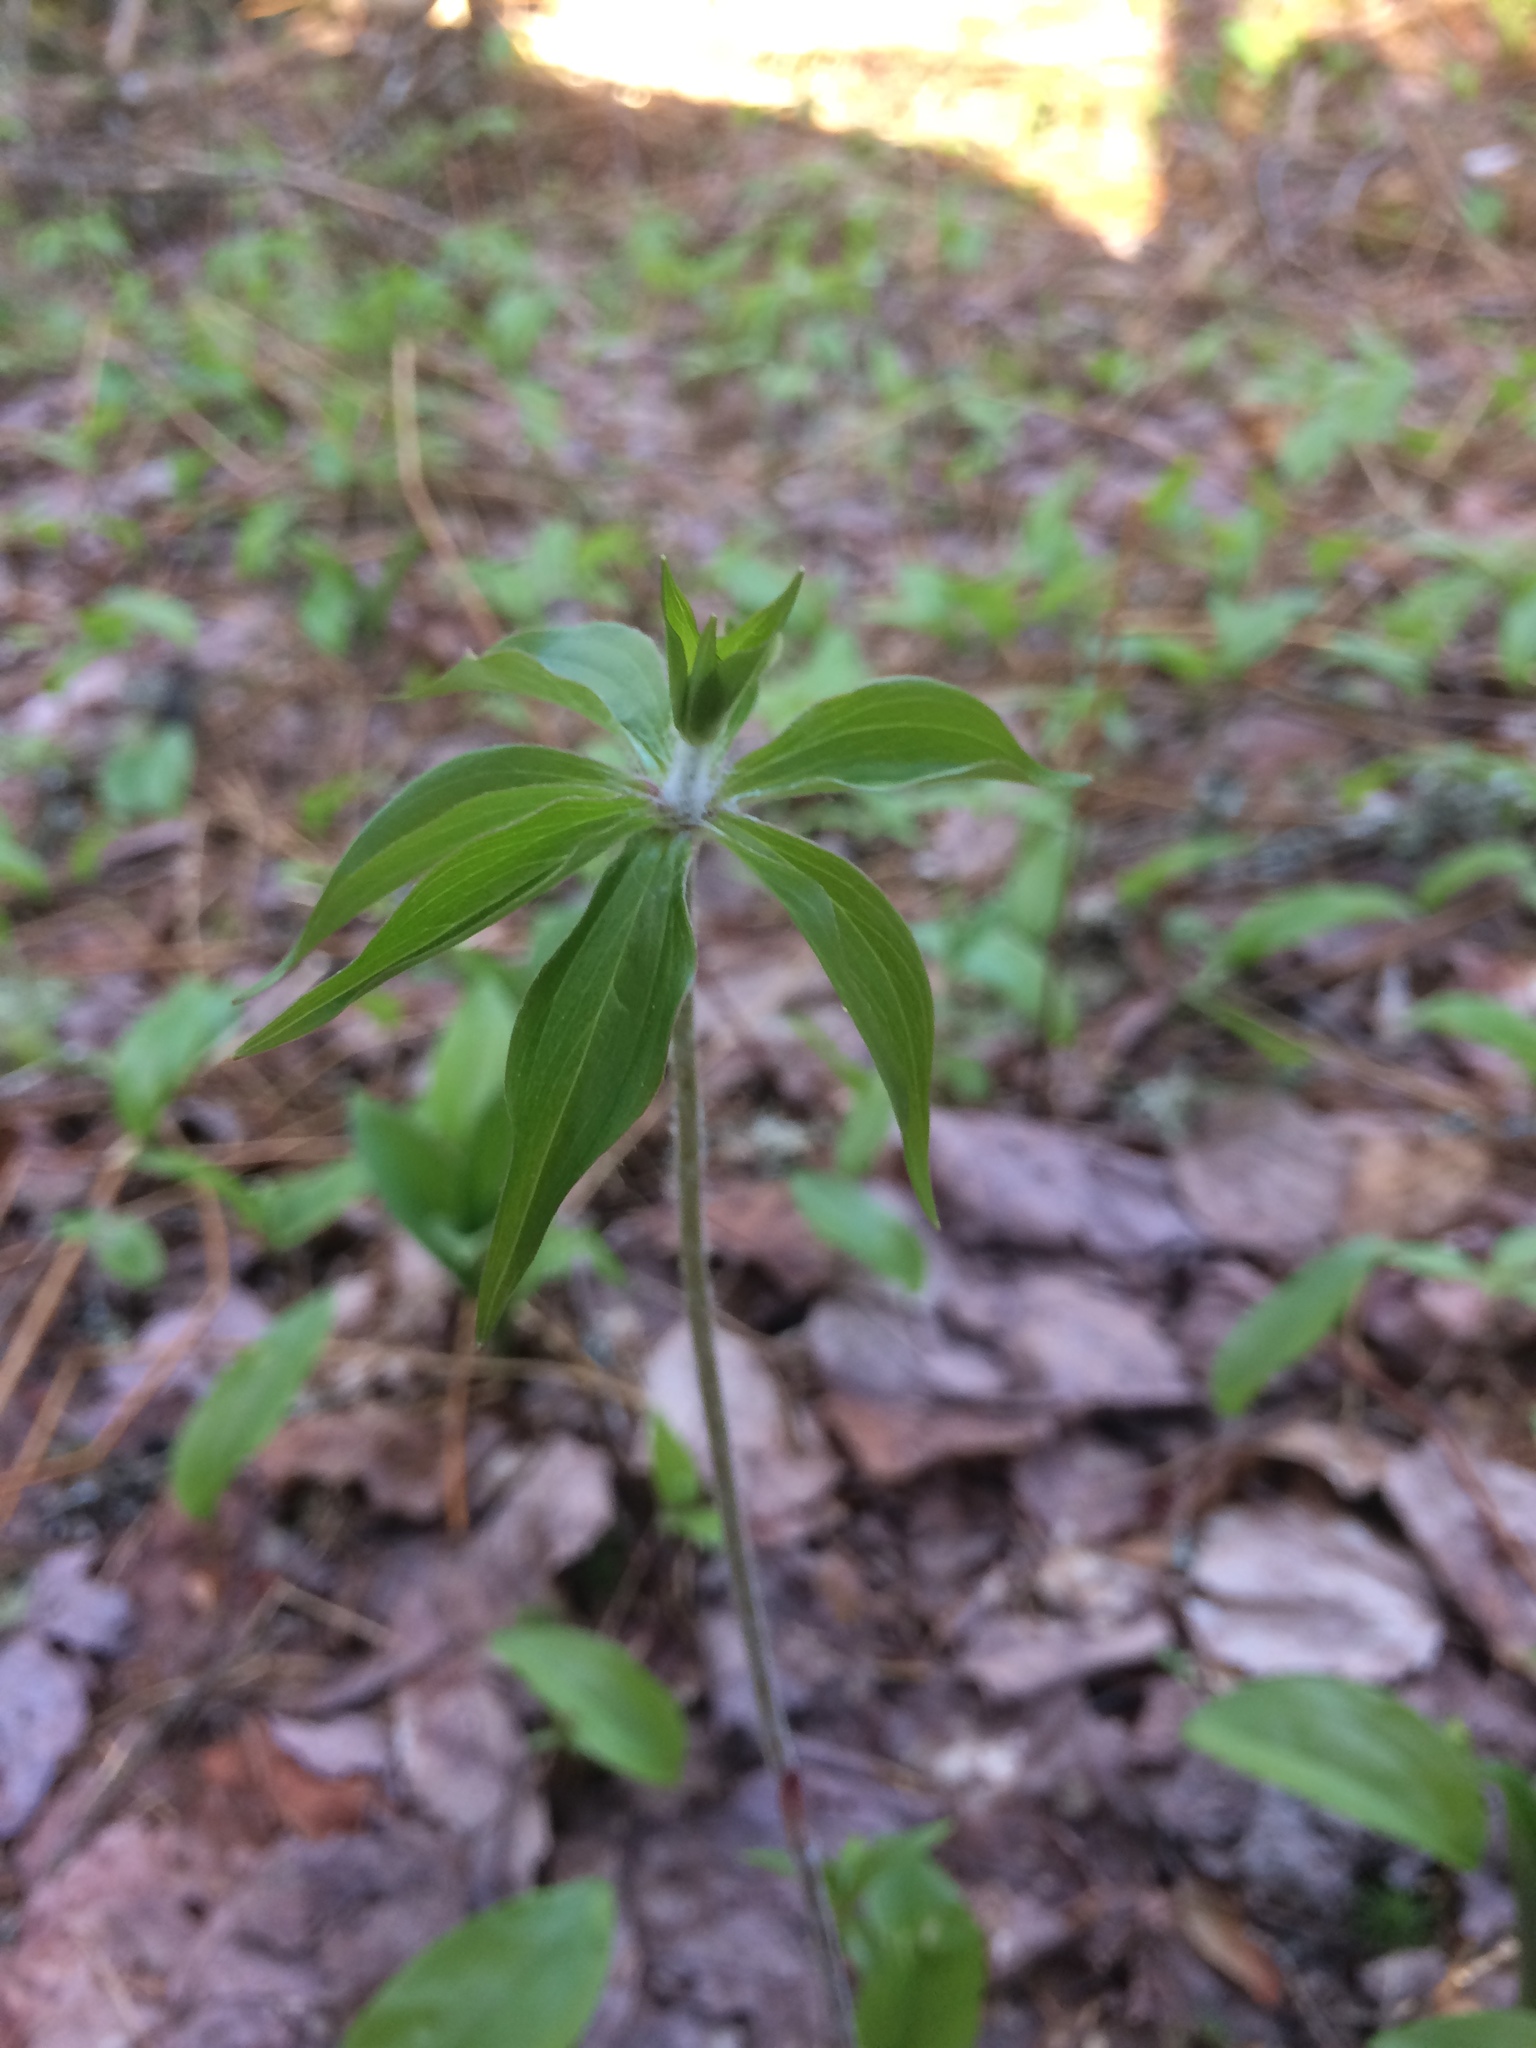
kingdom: Plantae
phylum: Tracheophyta
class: Liliopsida
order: Liliales
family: Liliaceae
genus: Medeola
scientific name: Medeola virginiana
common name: Indian cucumber-root
